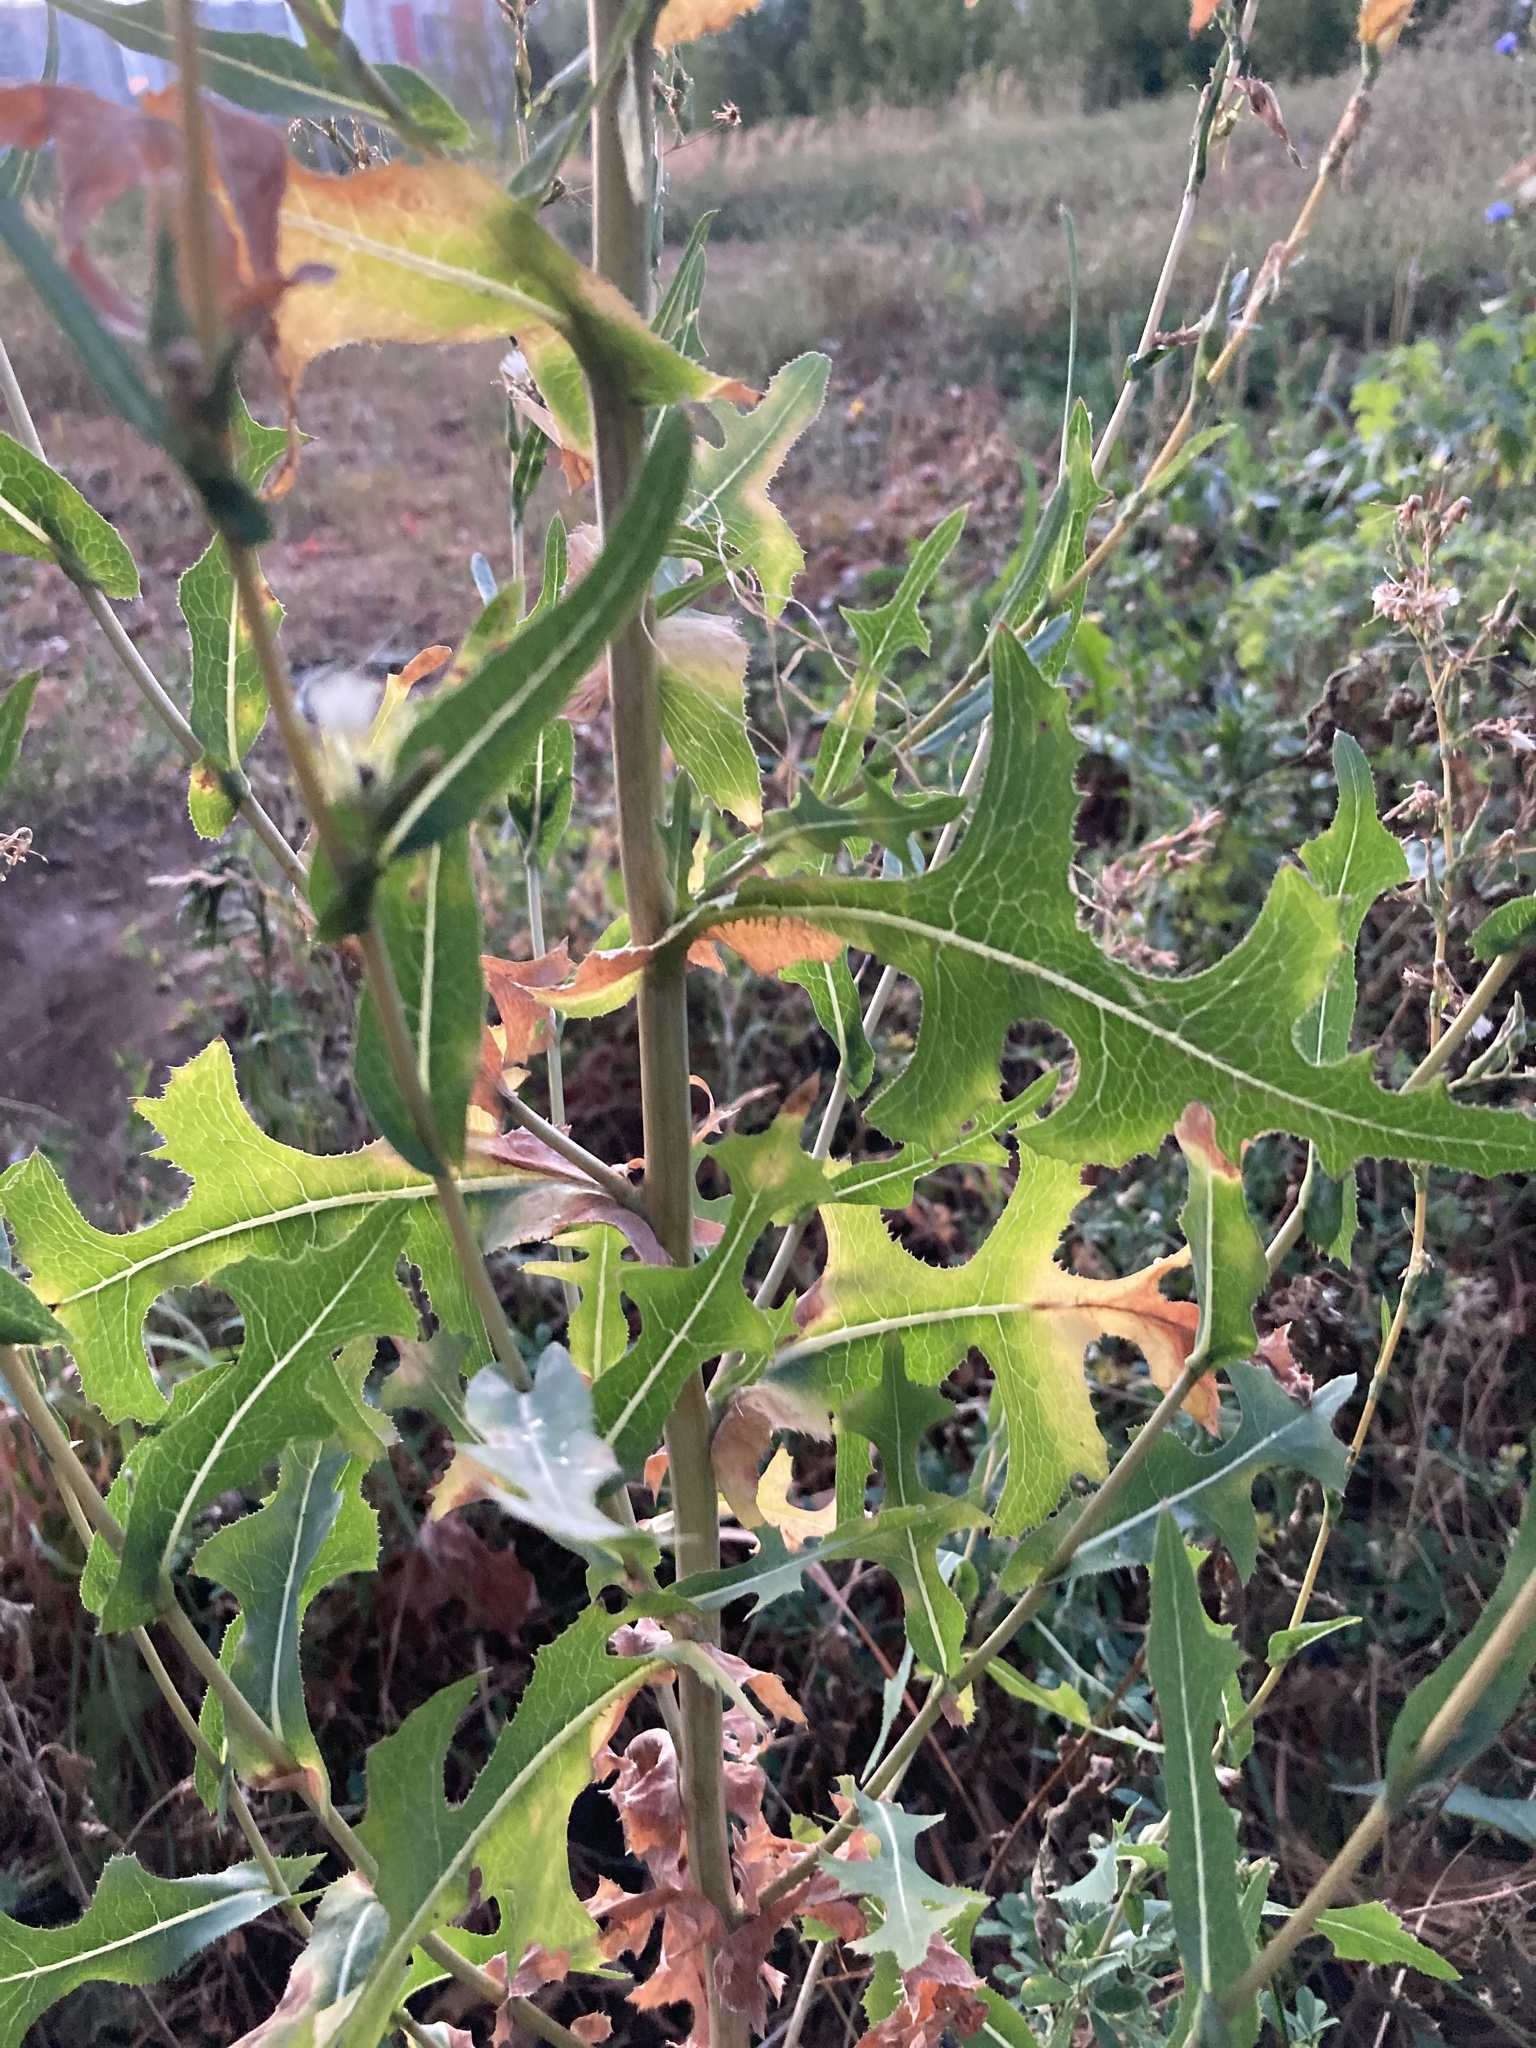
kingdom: Plantae
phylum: Tracheophyta
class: Magnoliopsida
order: Asterales
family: Asteraceae
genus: Lactuca
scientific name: Lactuca serriola
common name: Prickly lettuce
